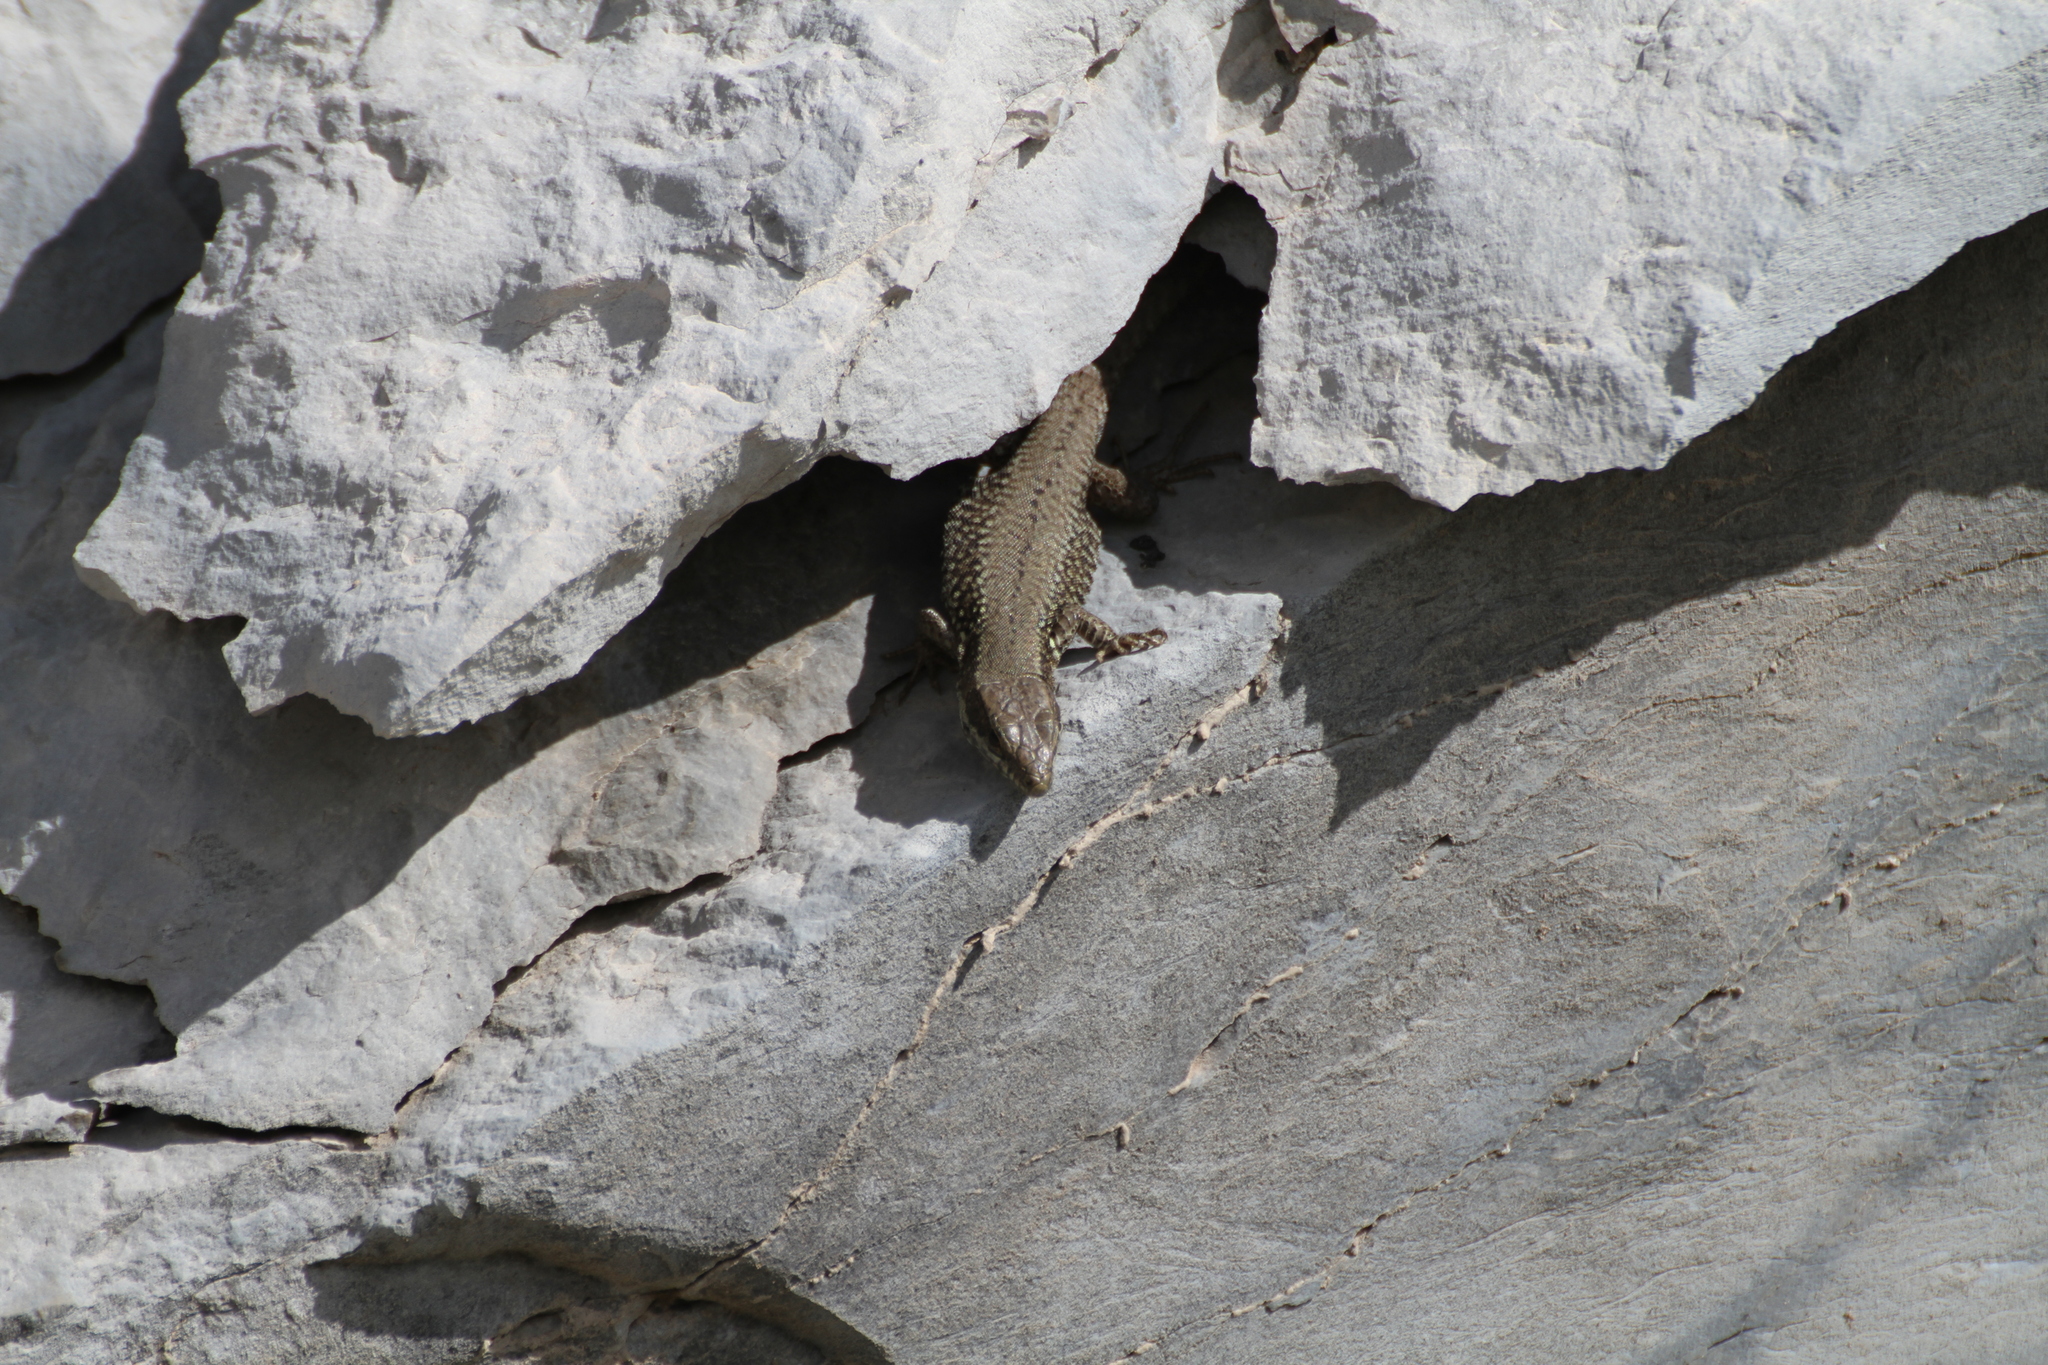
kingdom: Animalia
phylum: Chordata
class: Squamata
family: Lacertidae
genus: Podarcis
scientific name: Podarcis muralis
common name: Common wall lizard
